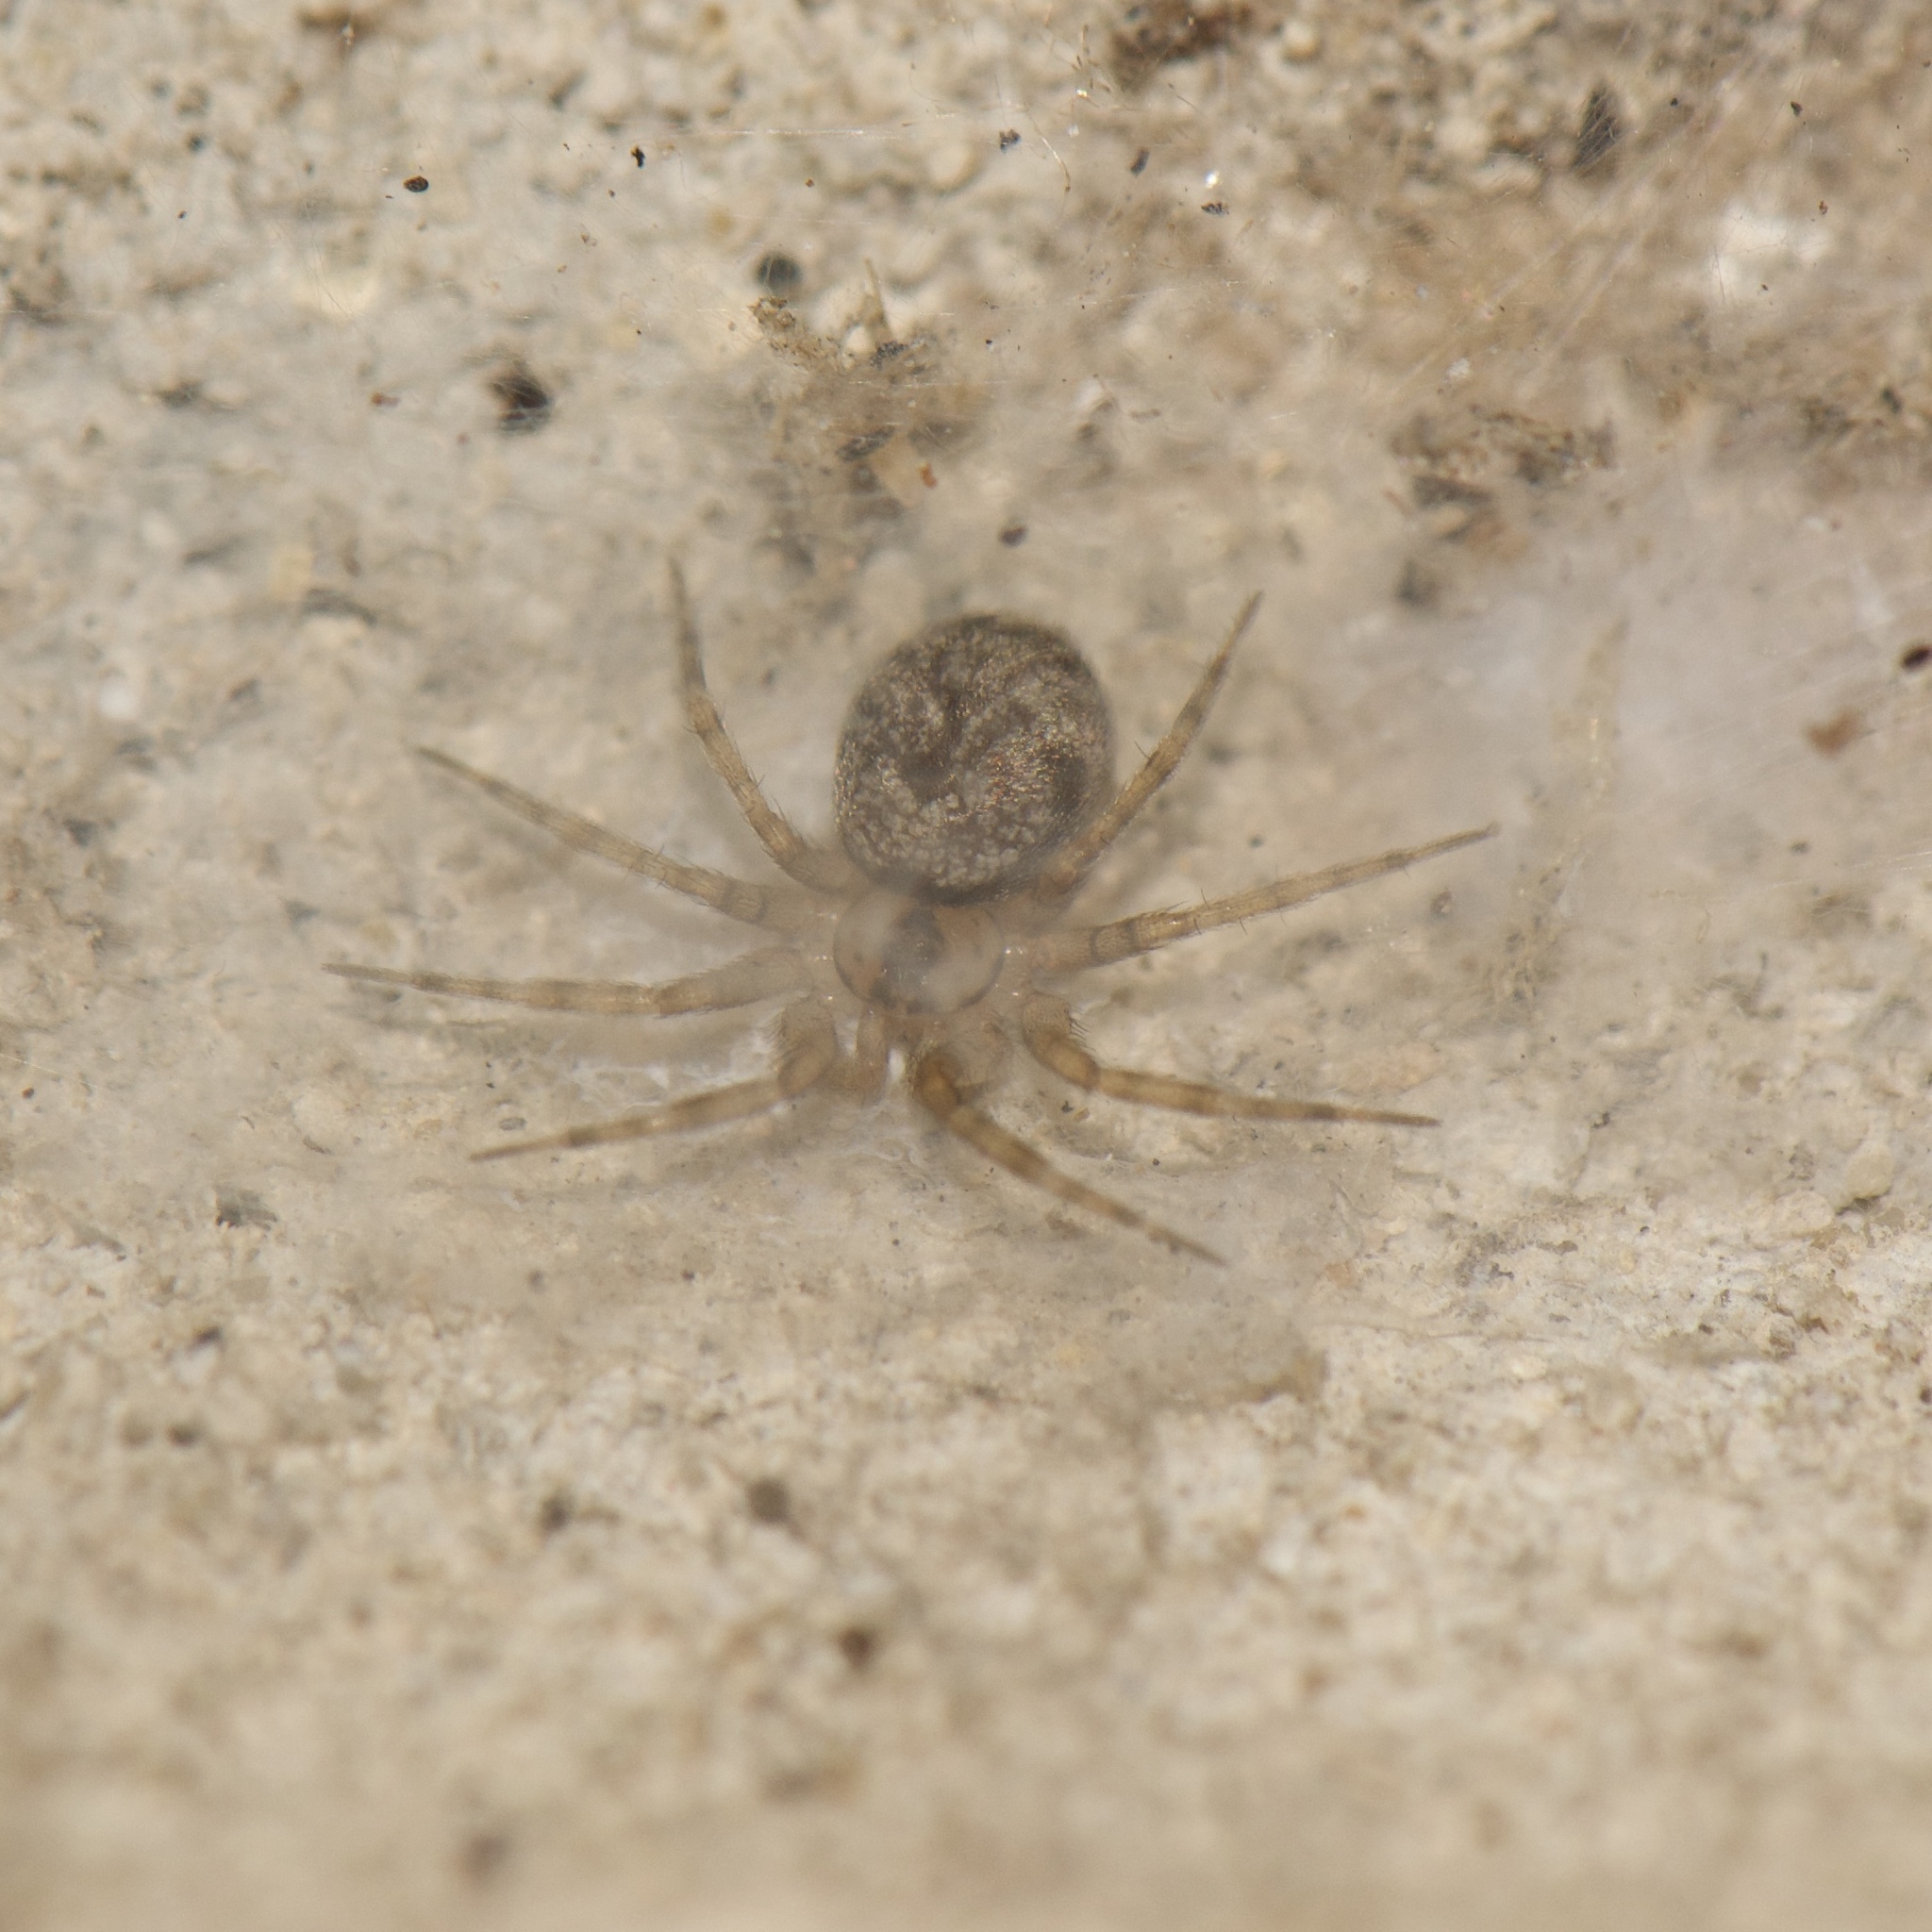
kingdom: Animalia
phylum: Arthropoda
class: Arachnida
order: Araneae
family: Oecobiidae
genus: Oecobius
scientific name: Oecobius navus
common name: Flatmesh weaver
